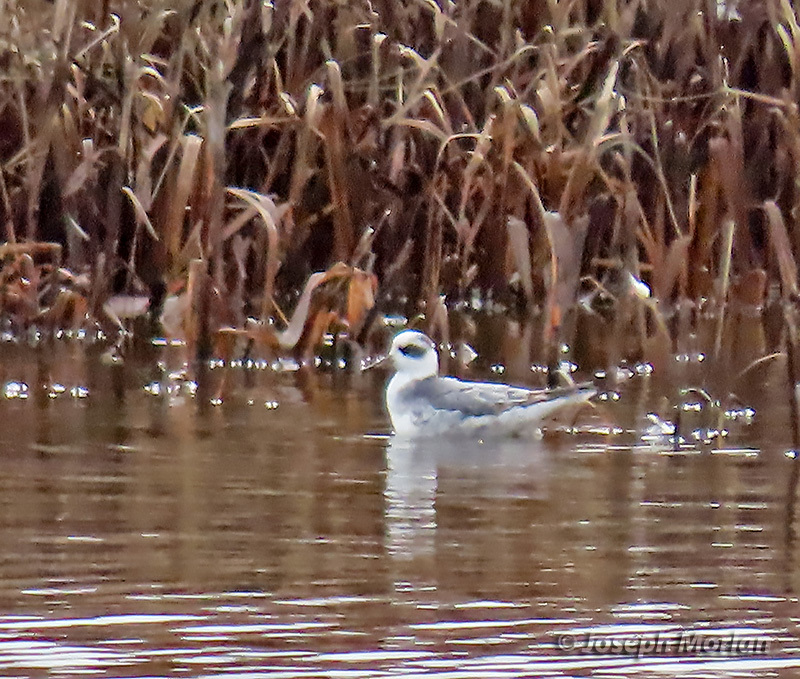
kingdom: Animalia
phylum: Chordata
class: Aves
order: Charadriiformes
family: Scolopacidae
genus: Phalaropus
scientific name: Phalaropus fulicarius
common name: Red phalarope
